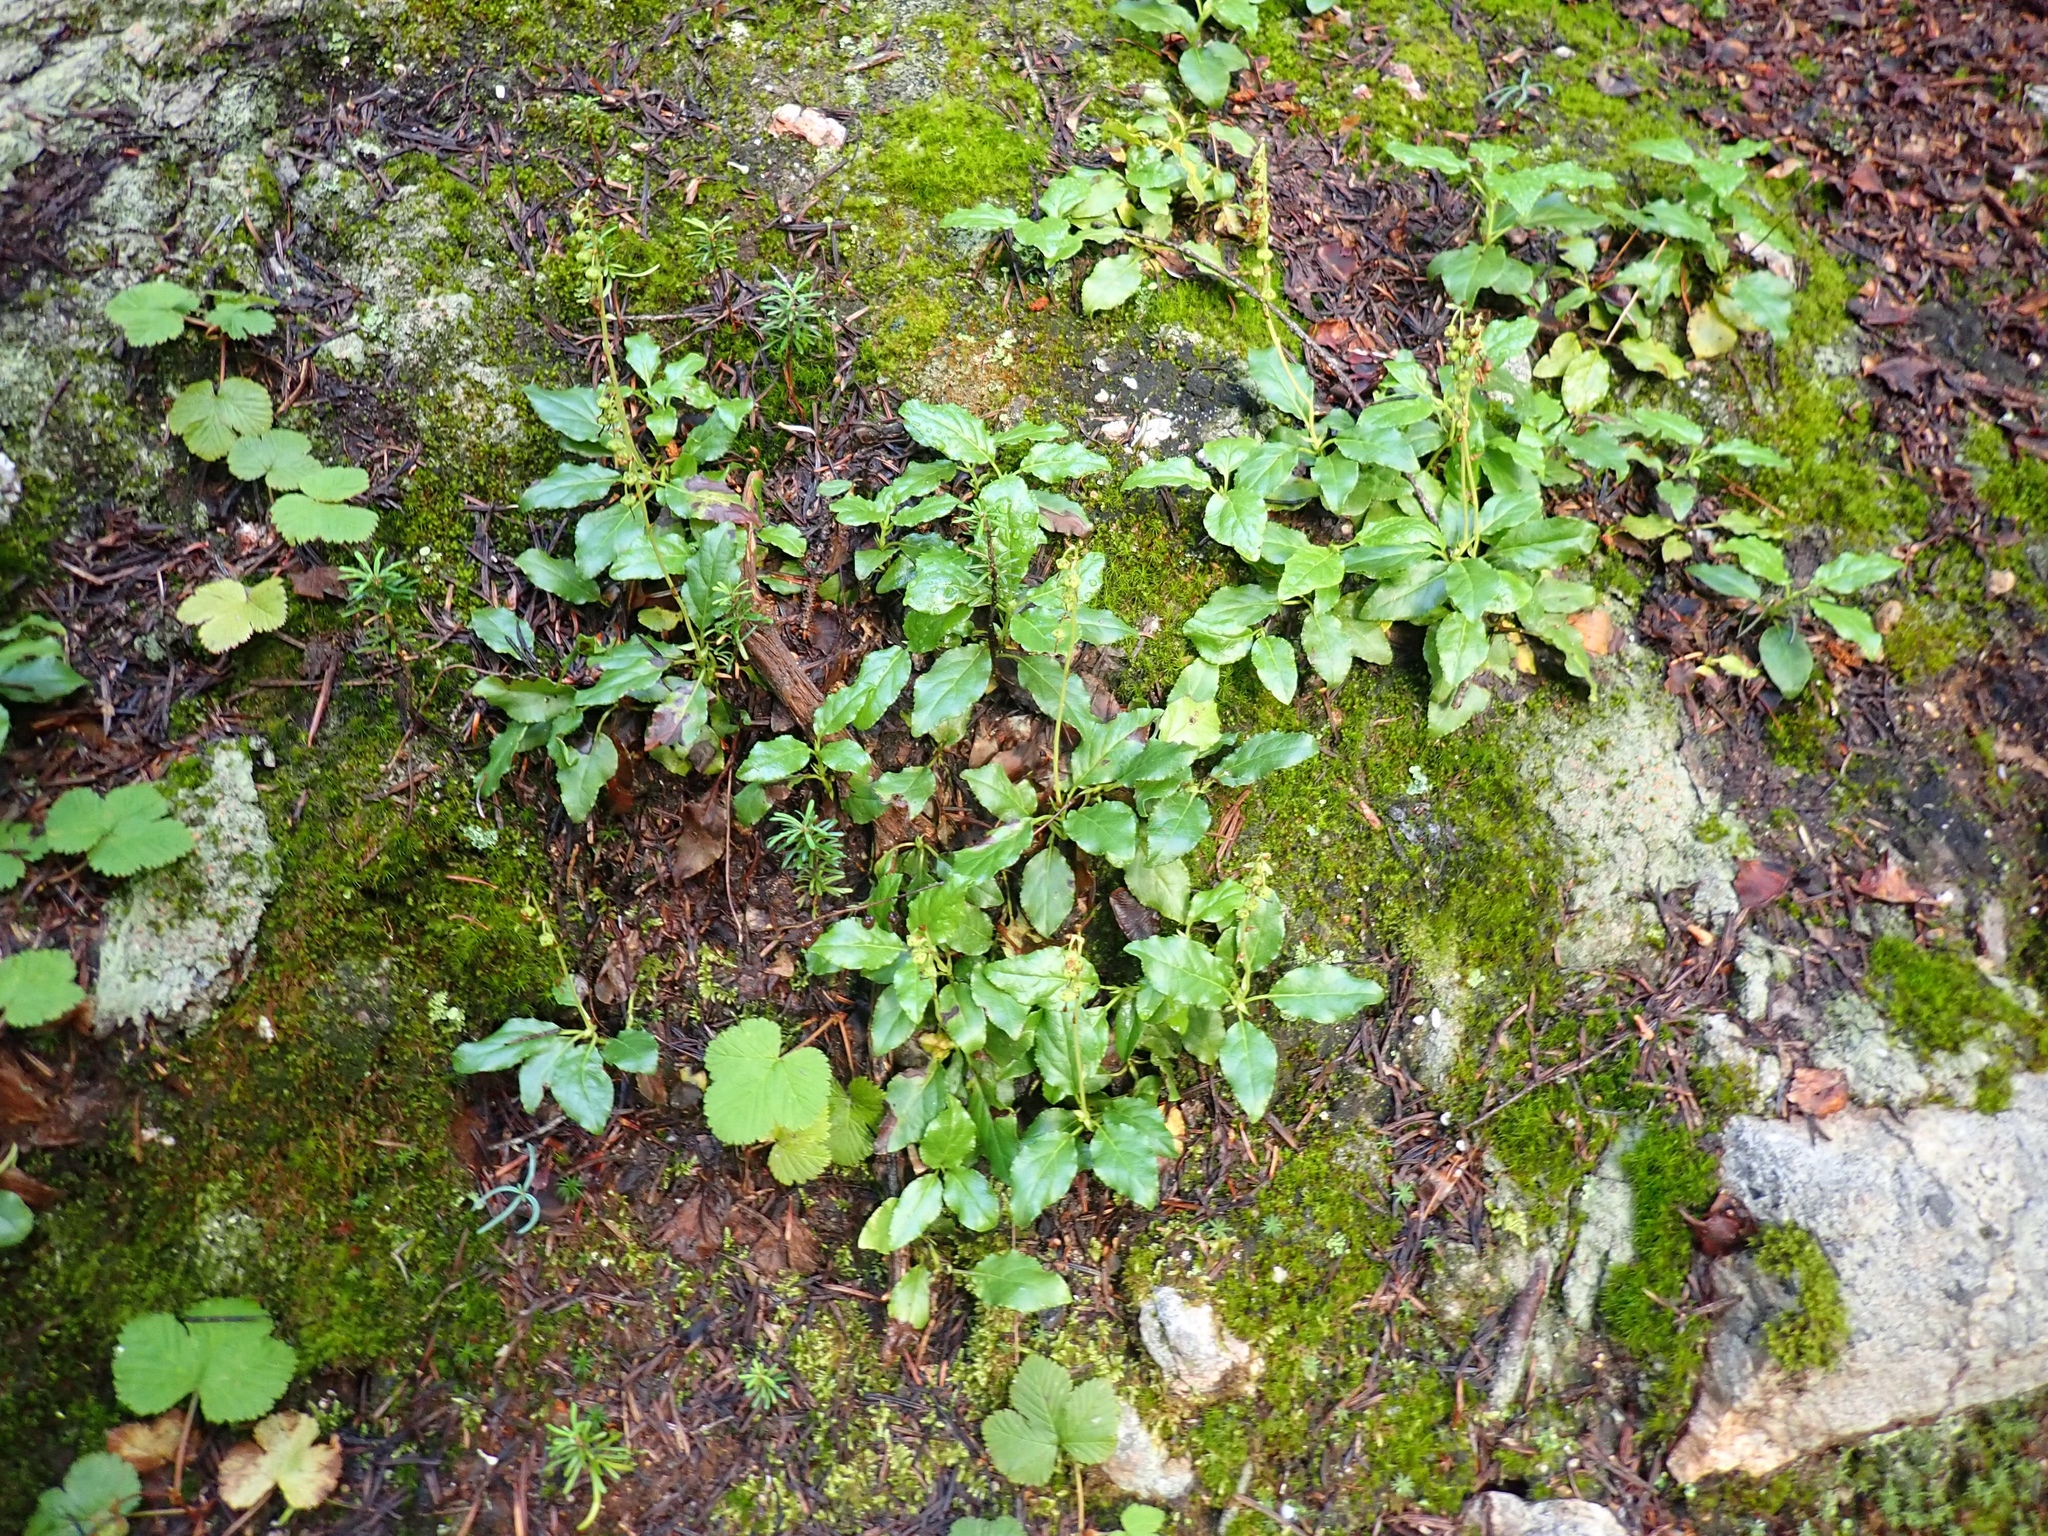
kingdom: Plantae
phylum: Tracheophyta
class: Magnoliopsida
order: Ericales
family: Ericaceae
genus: Orthilia
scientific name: Orthilia secunda
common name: One-sided orthilia
